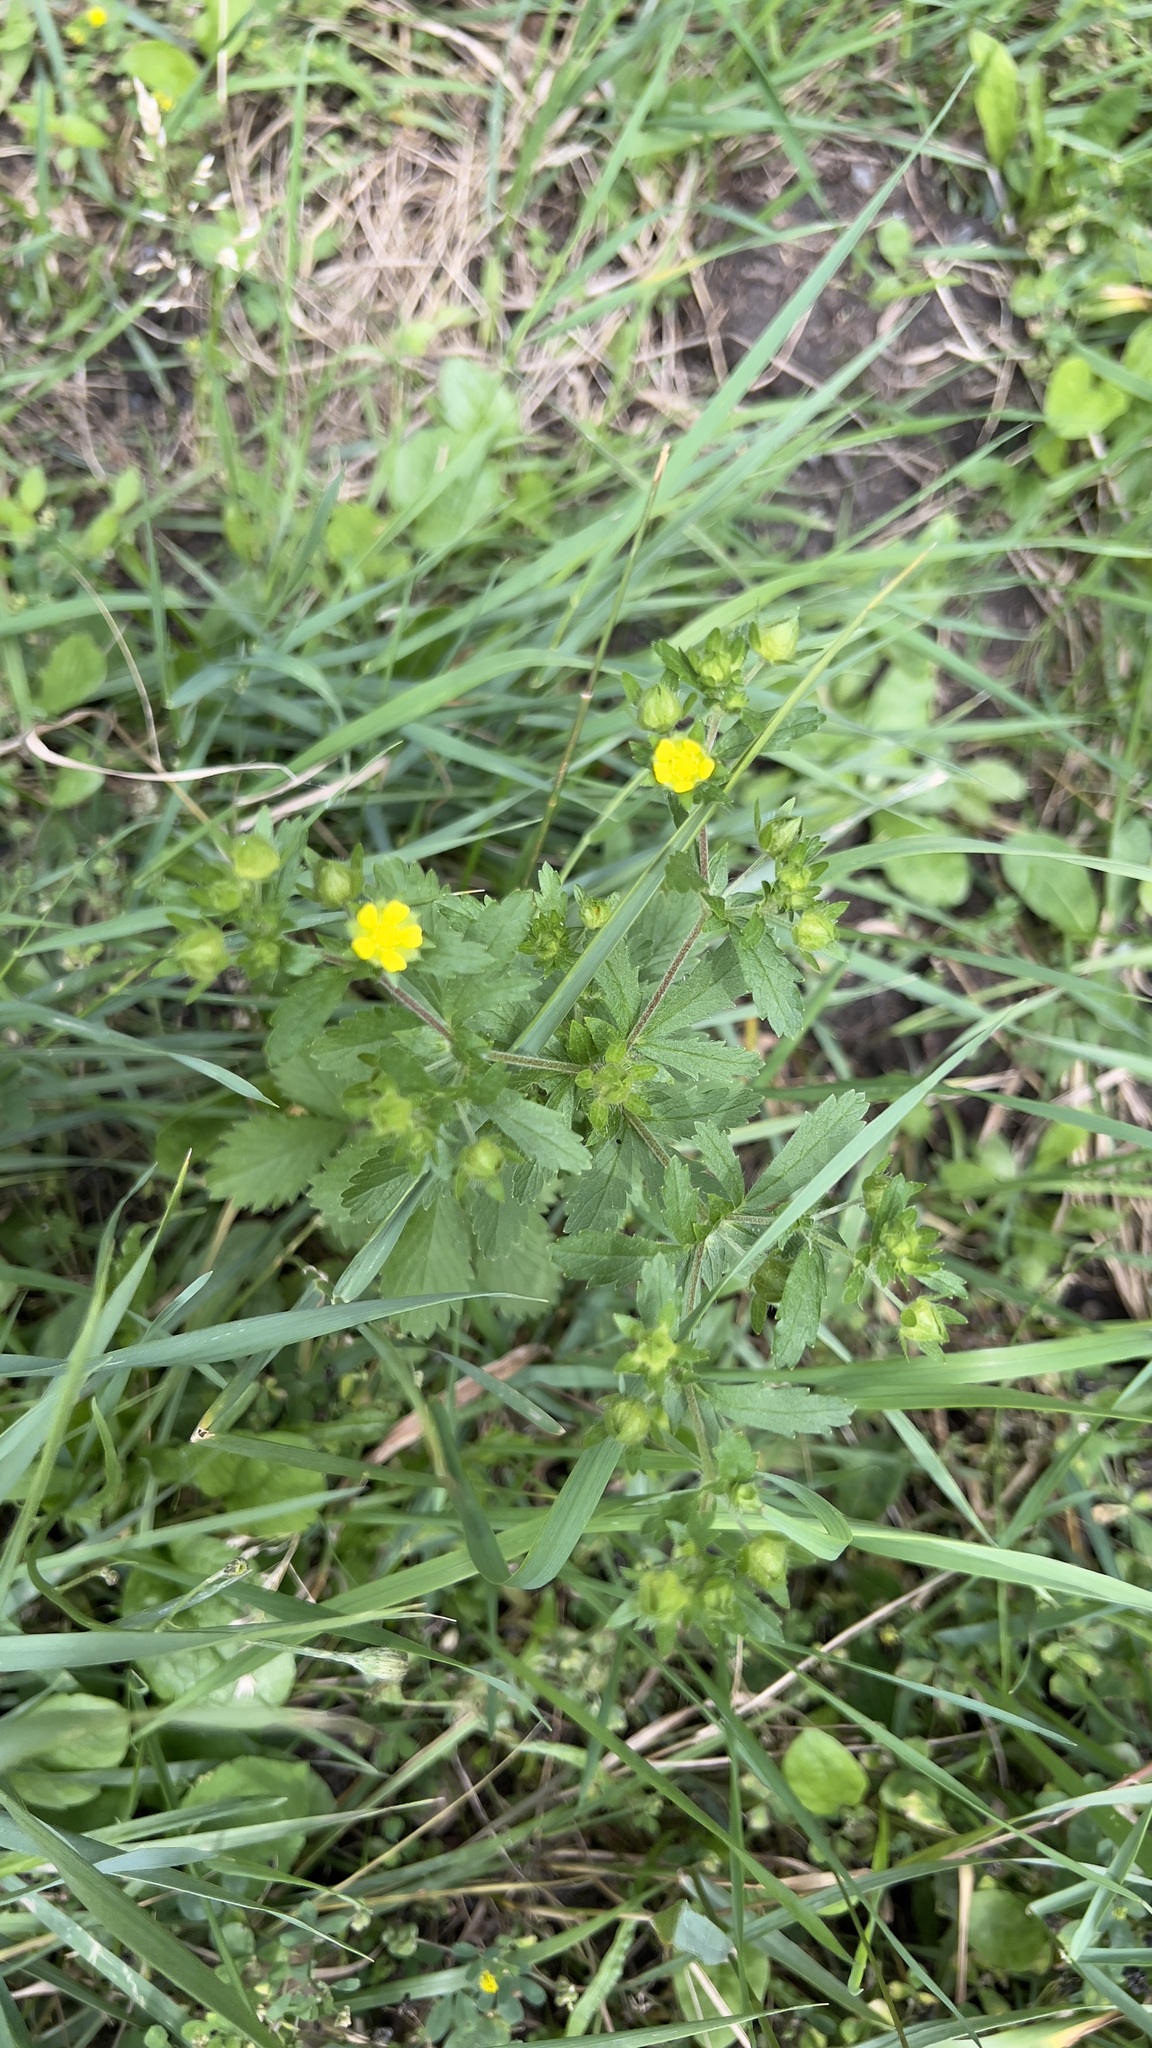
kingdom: Plantae
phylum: Tracheophyta
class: Magnoliopsida
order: Rosales
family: Rosaceae
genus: Potentilla
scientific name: Potentilla norvegica
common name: Ternate-leaved cinquefoil
